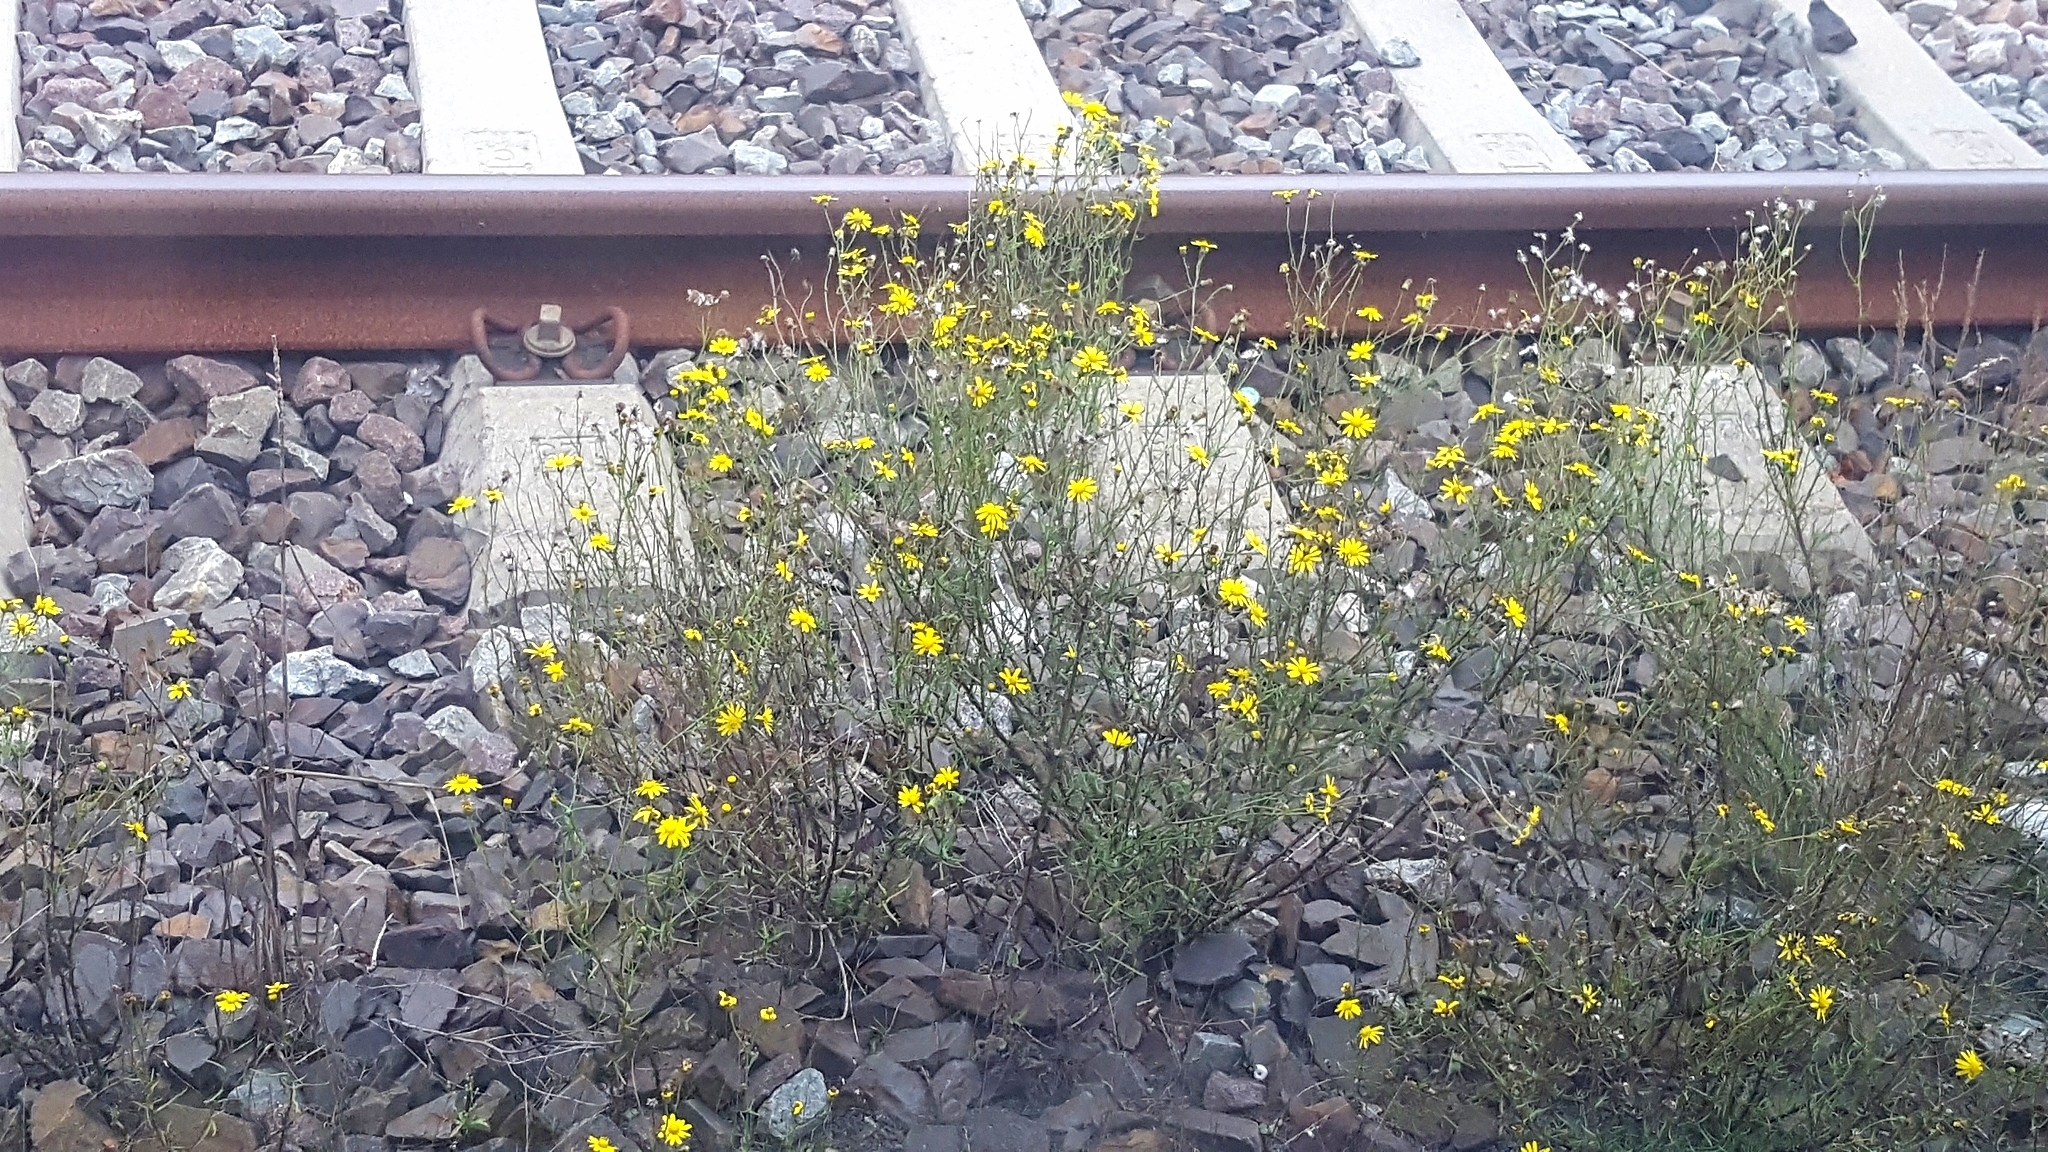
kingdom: Plantae
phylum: Tracheophyta
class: Magnoliopsida
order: Asterales
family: Asteraceae
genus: Senecio
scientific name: Senecio inaequidens
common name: Narrow-leaved ragwort
